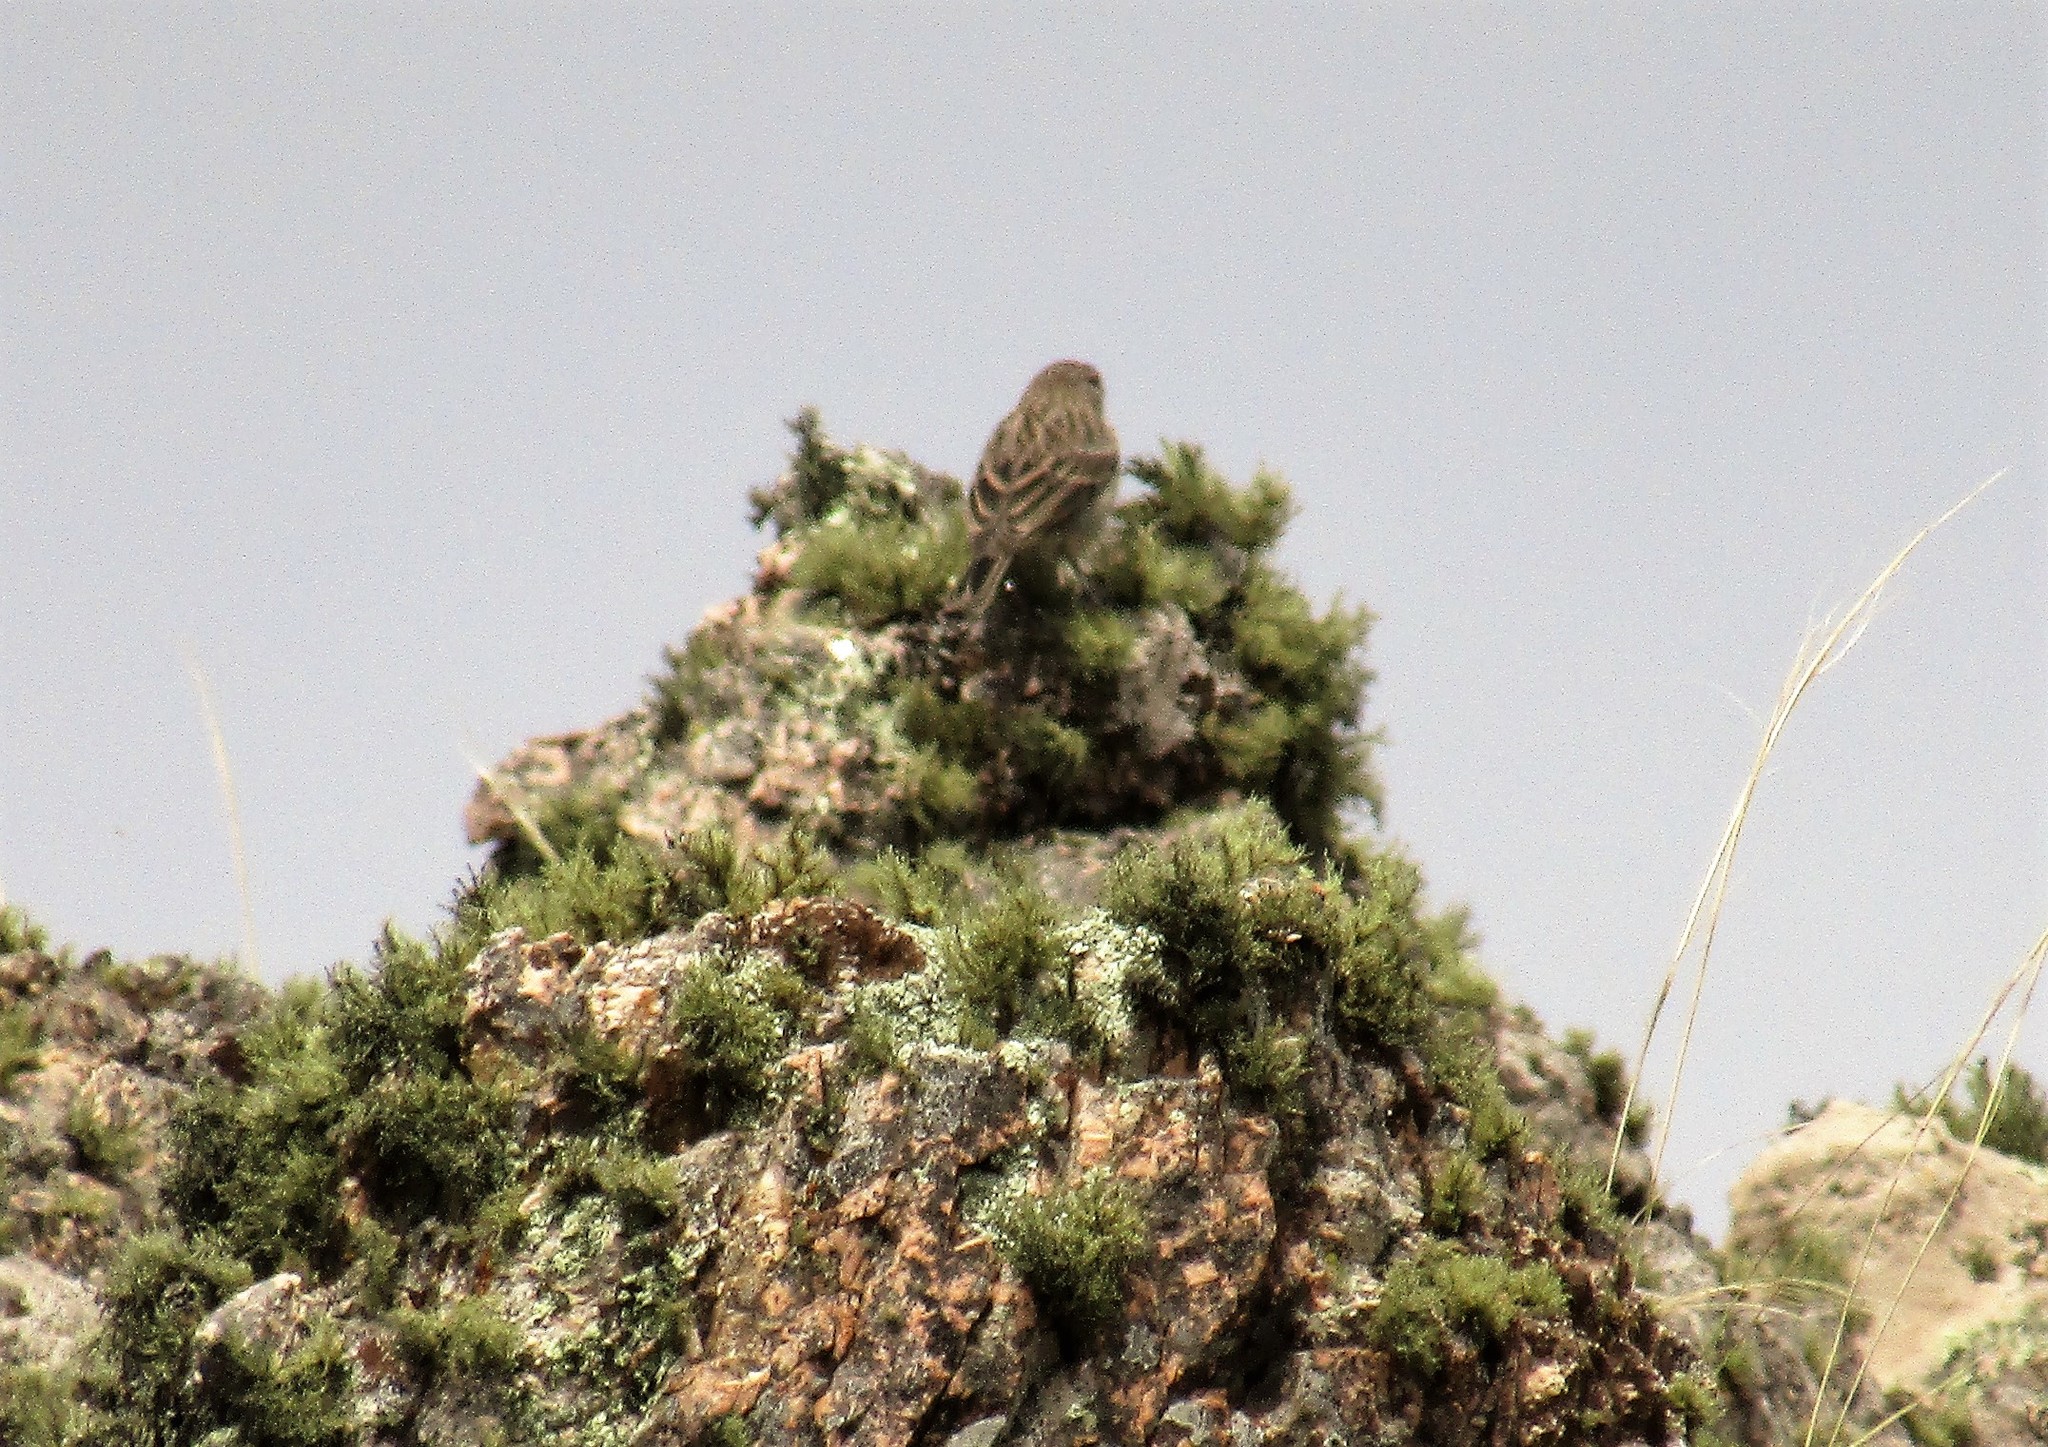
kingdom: Animalia
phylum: Chordata
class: Aves
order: Passeriformes
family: Thraupidae
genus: Geospizopsis
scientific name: Geospizopsis plebejus
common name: Ash-breasted sierra-finch
